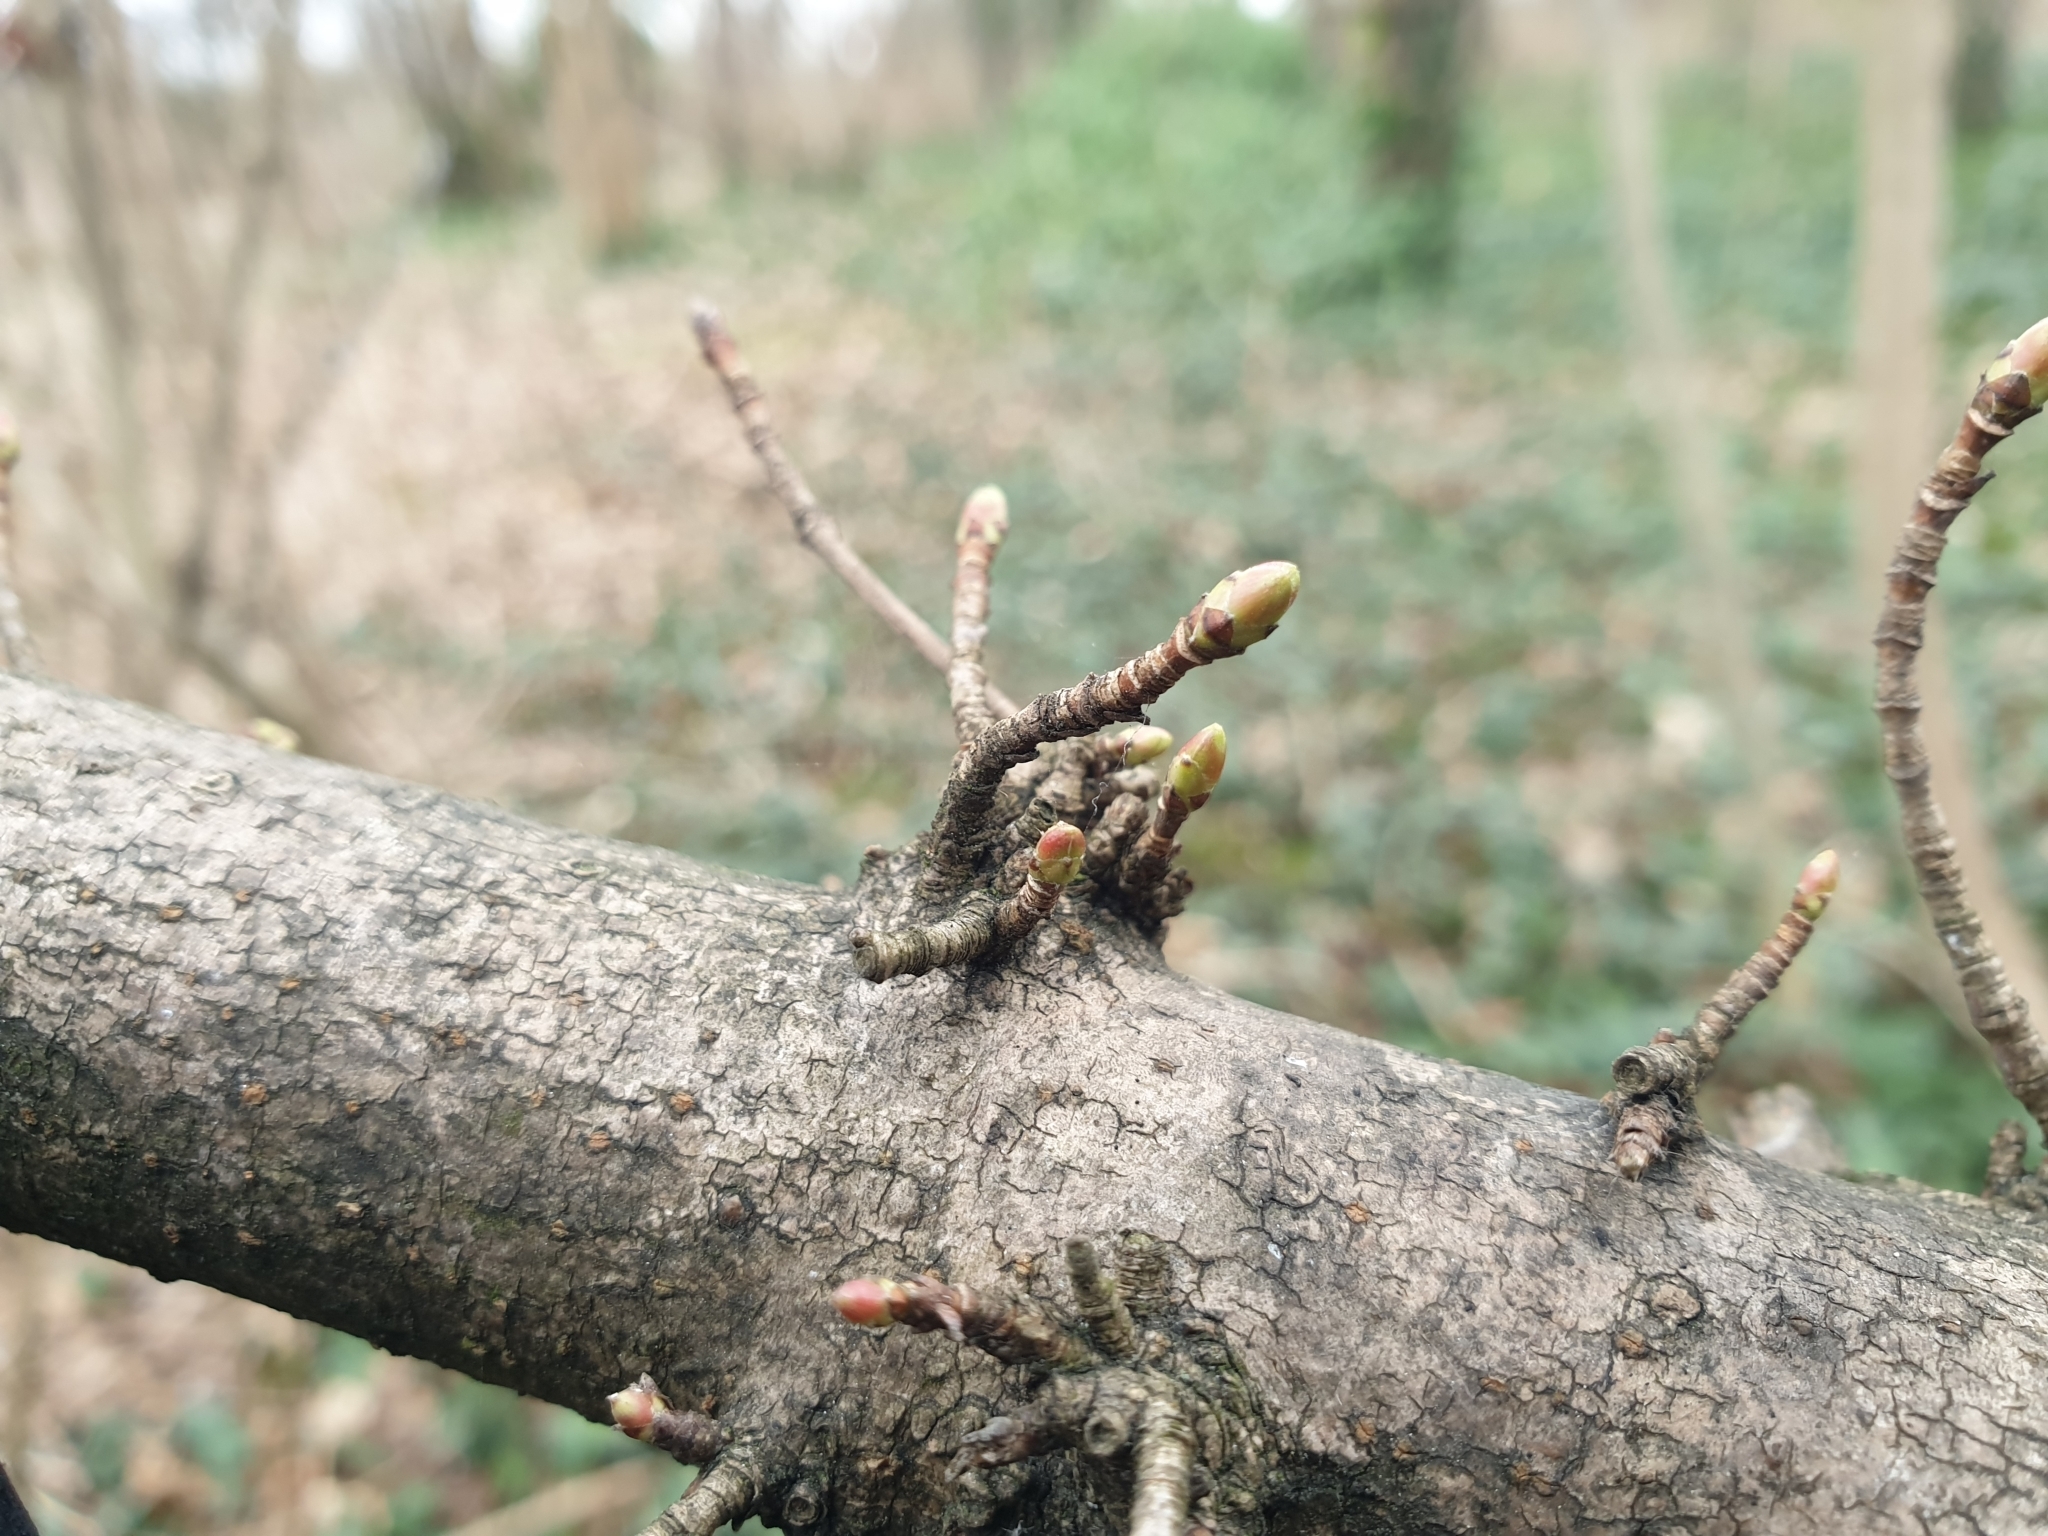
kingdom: Plantae
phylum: Tracheophyta
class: Magnoliopsida
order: Sapindales
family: Sapindaceae
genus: Acer
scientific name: Acer campestre
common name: Field maple
